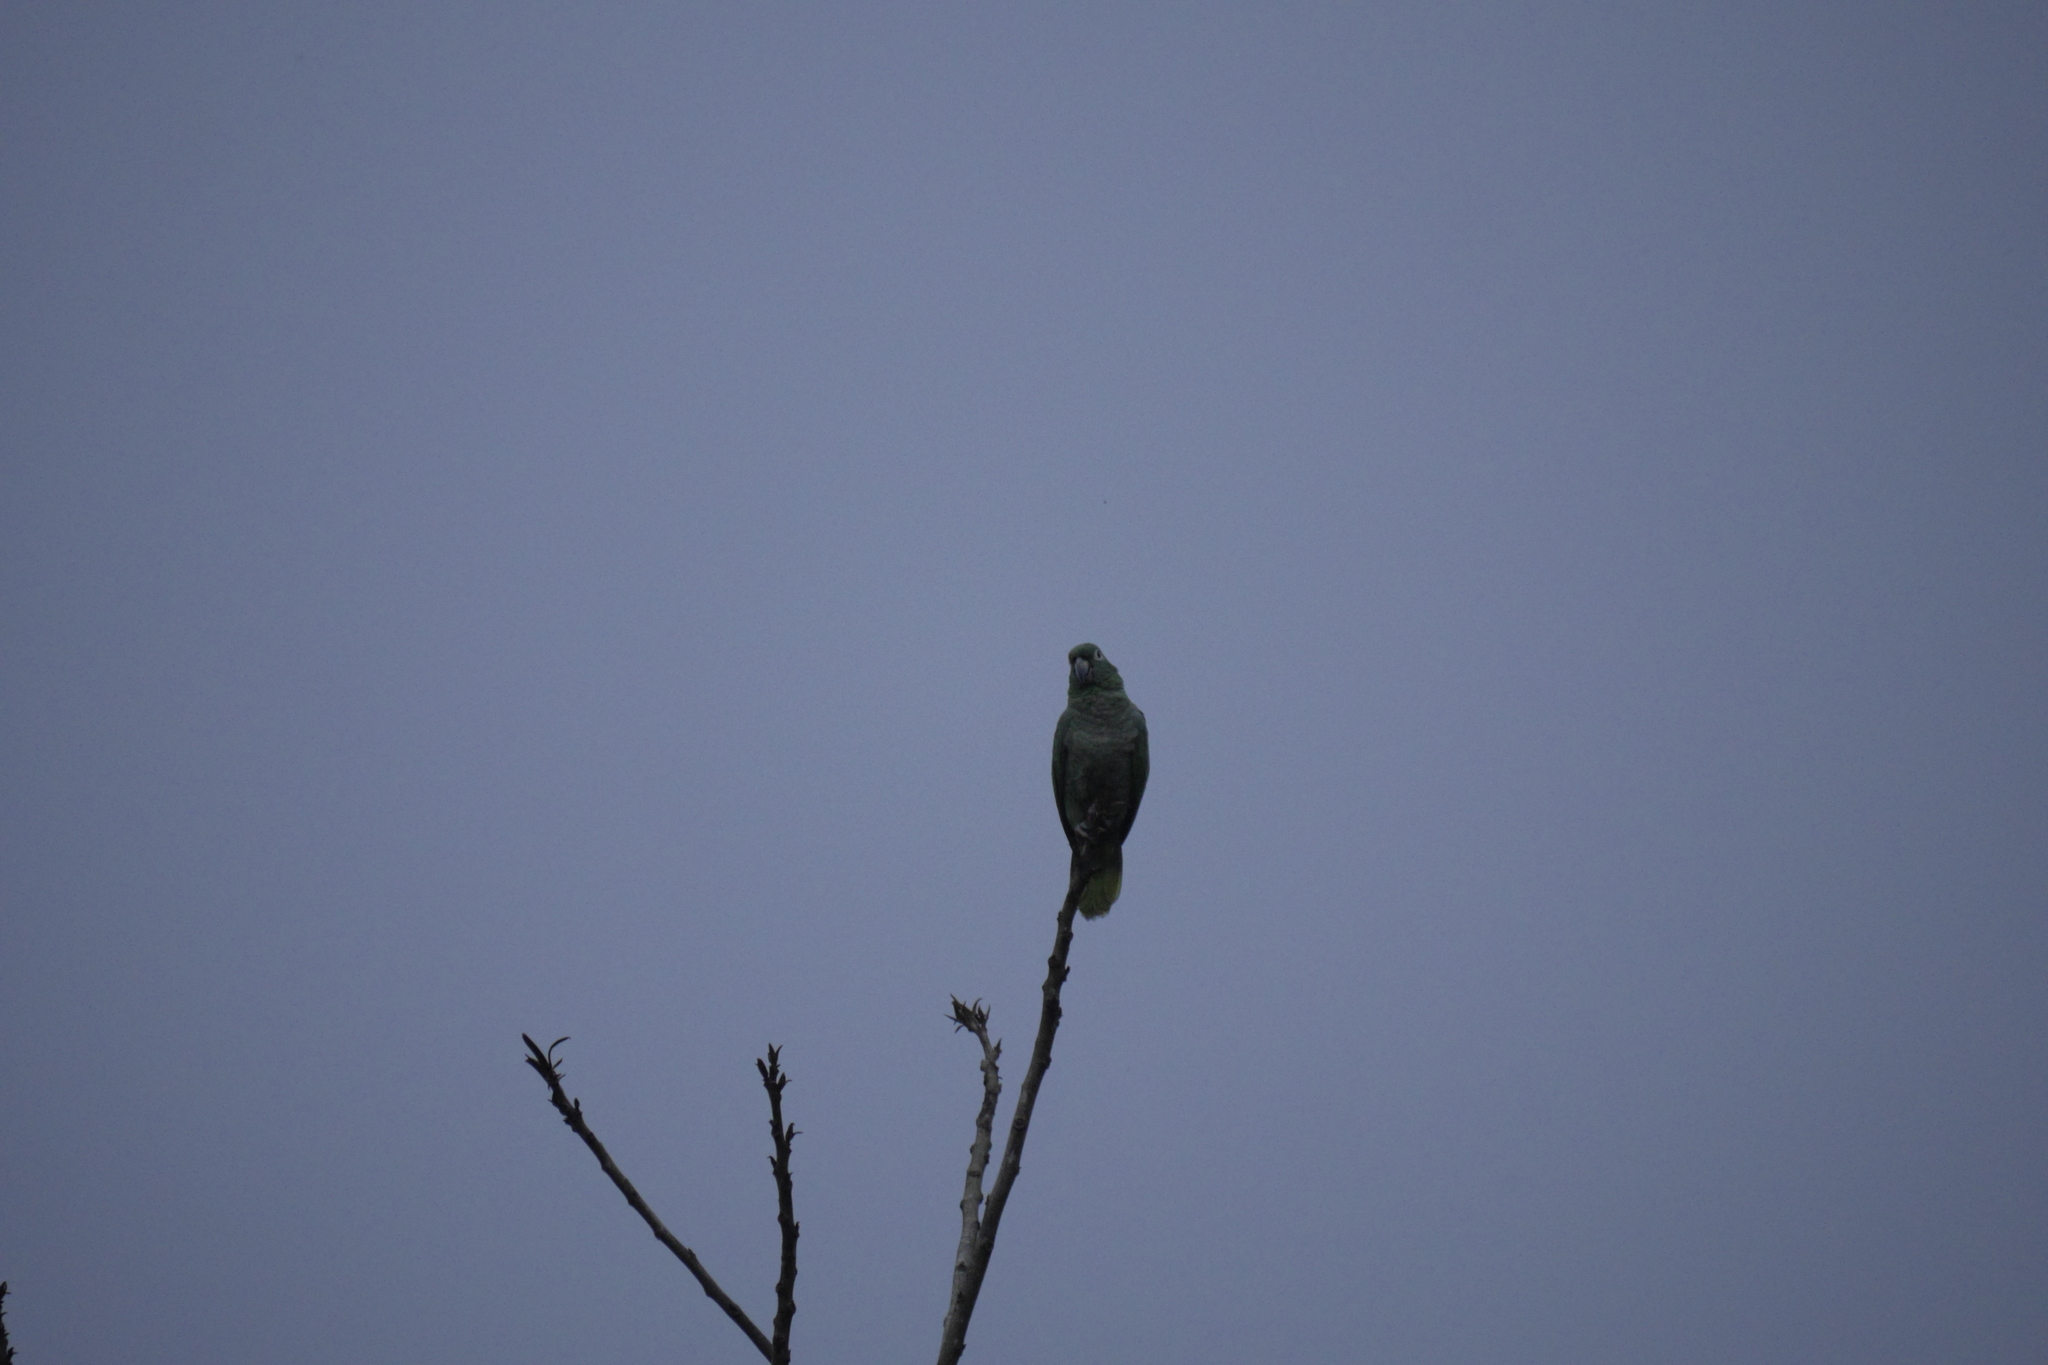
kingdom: Animalia
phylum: Chordata
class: Aves
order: Psittaciformes
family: Psittacidae
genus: Amazona
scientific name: Amazona farinosa
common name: Mealy parrot
